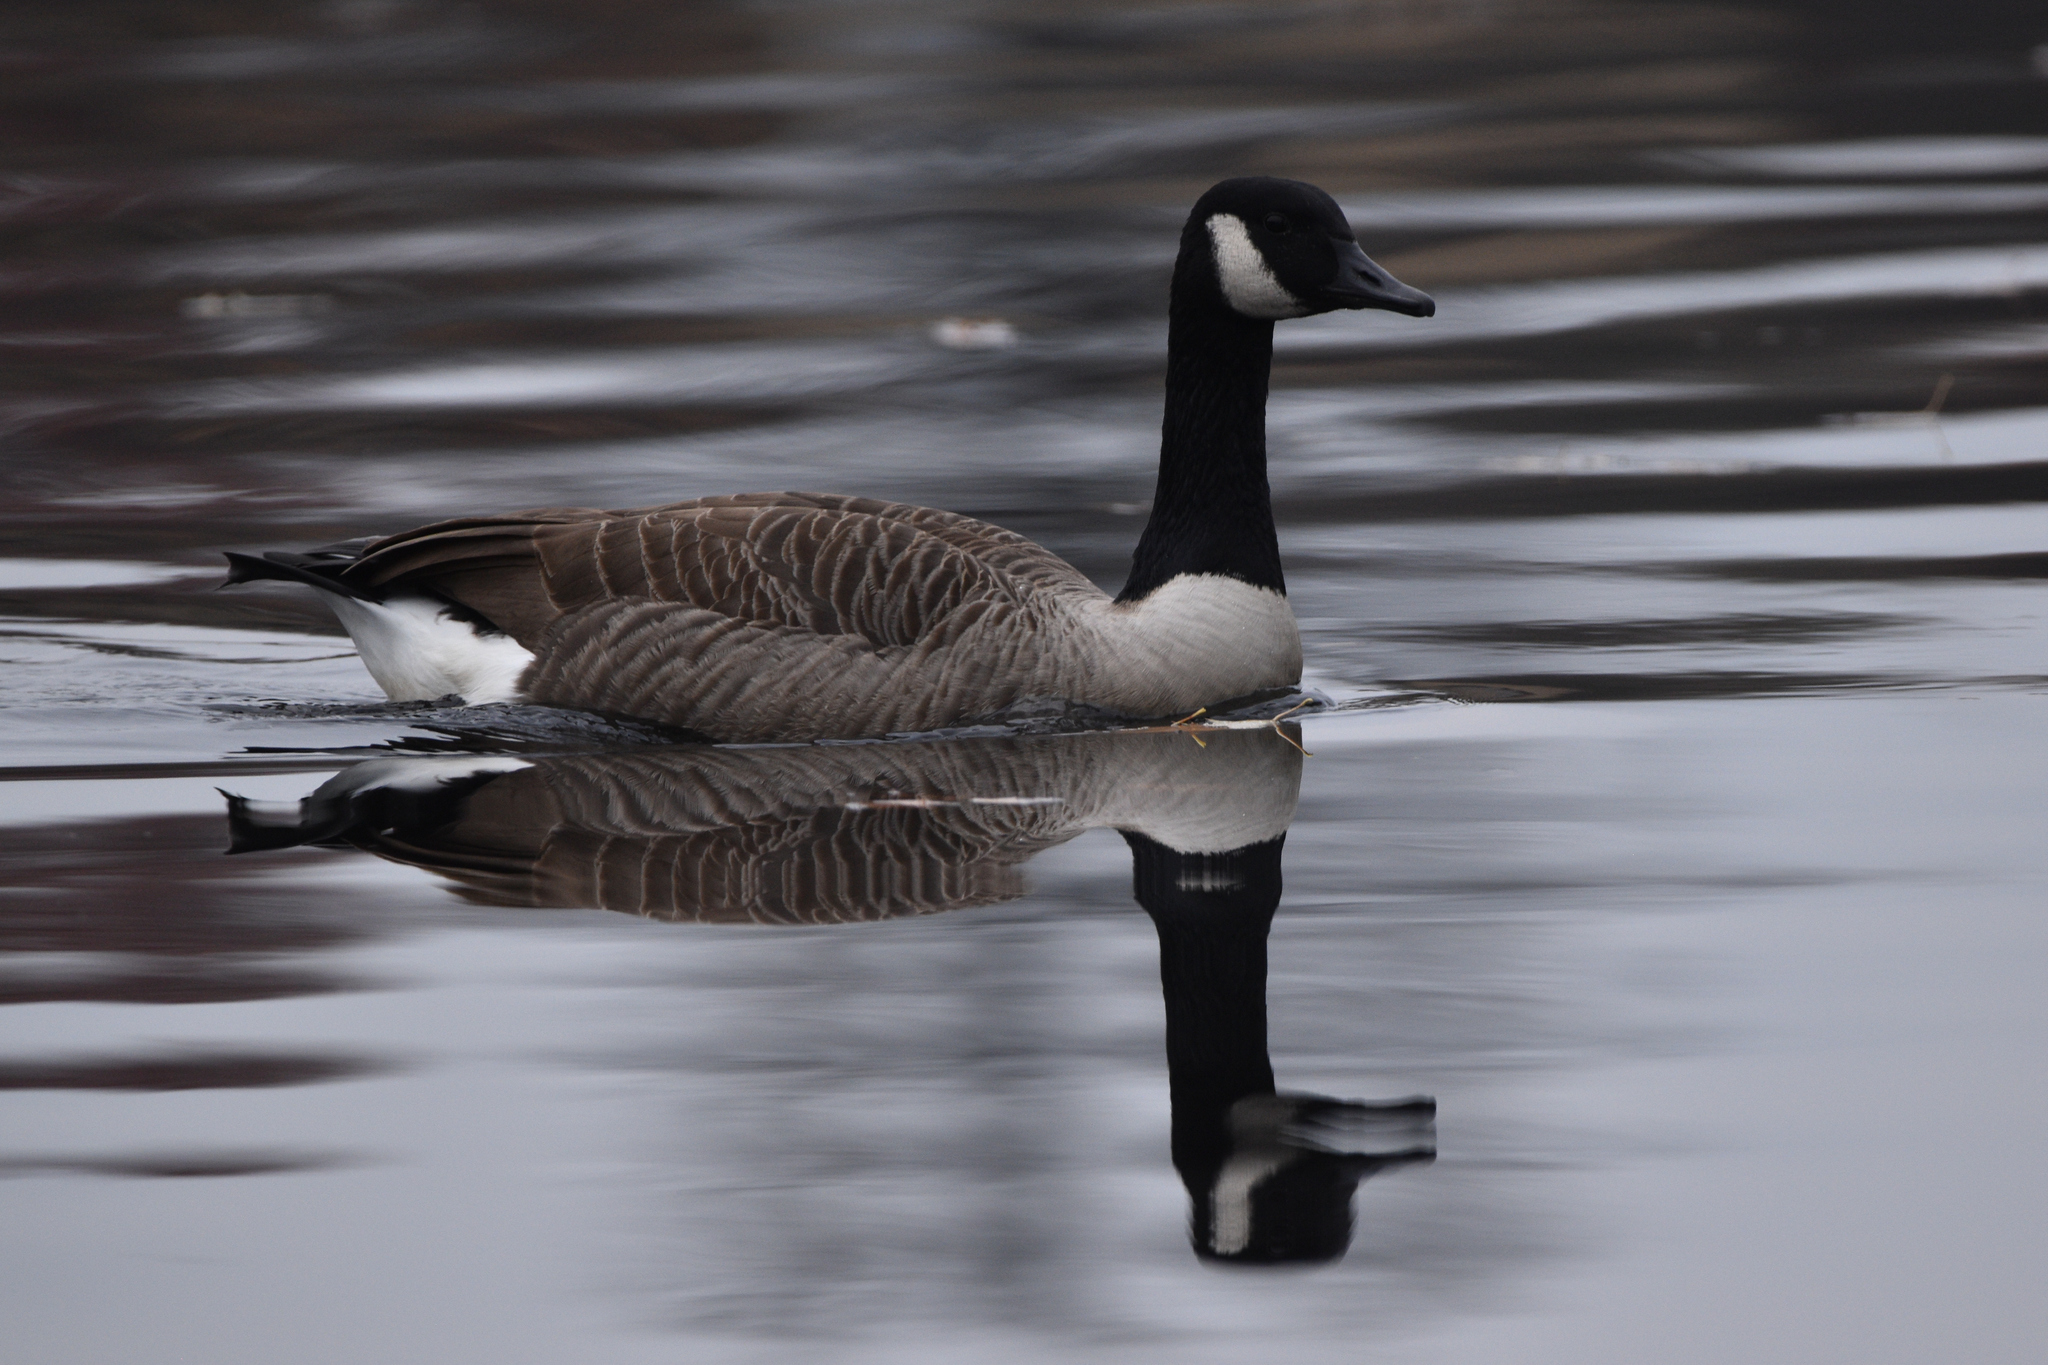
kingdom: Animalia
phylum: Chordata
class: Aves
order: Anseriformes
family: Anatidae
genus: Branta
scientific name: Branta canadensis
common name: Canada goose
